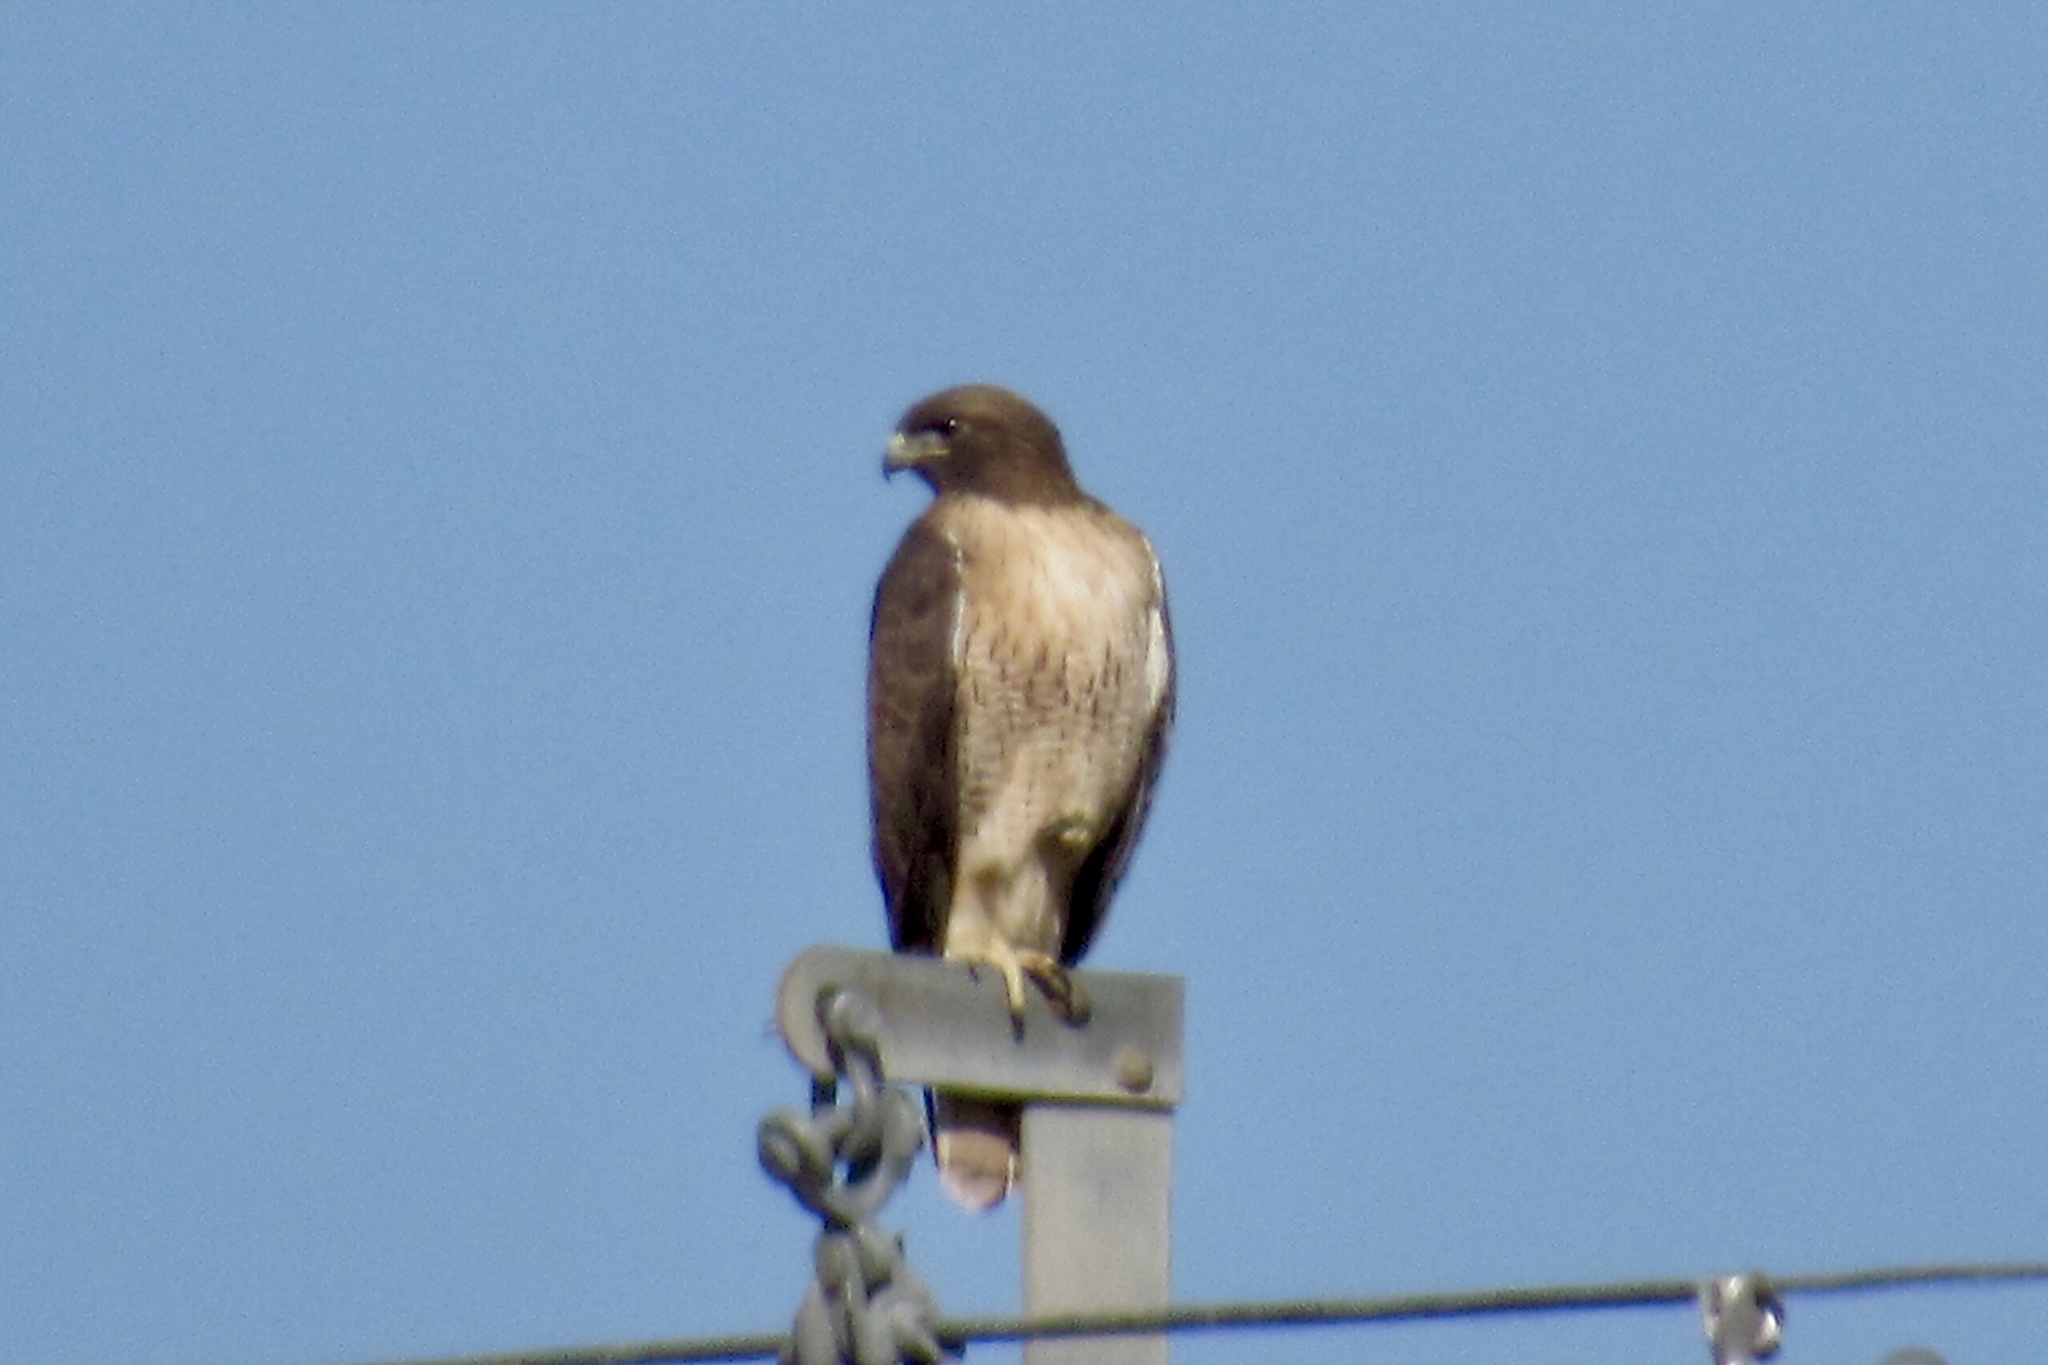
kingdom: Animalia
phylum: Chordata
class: Aves
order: Accipitriformes
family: Accipitridae
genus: Buteo
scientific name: Buteo jamaicensis
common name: Red-tailed hawk
